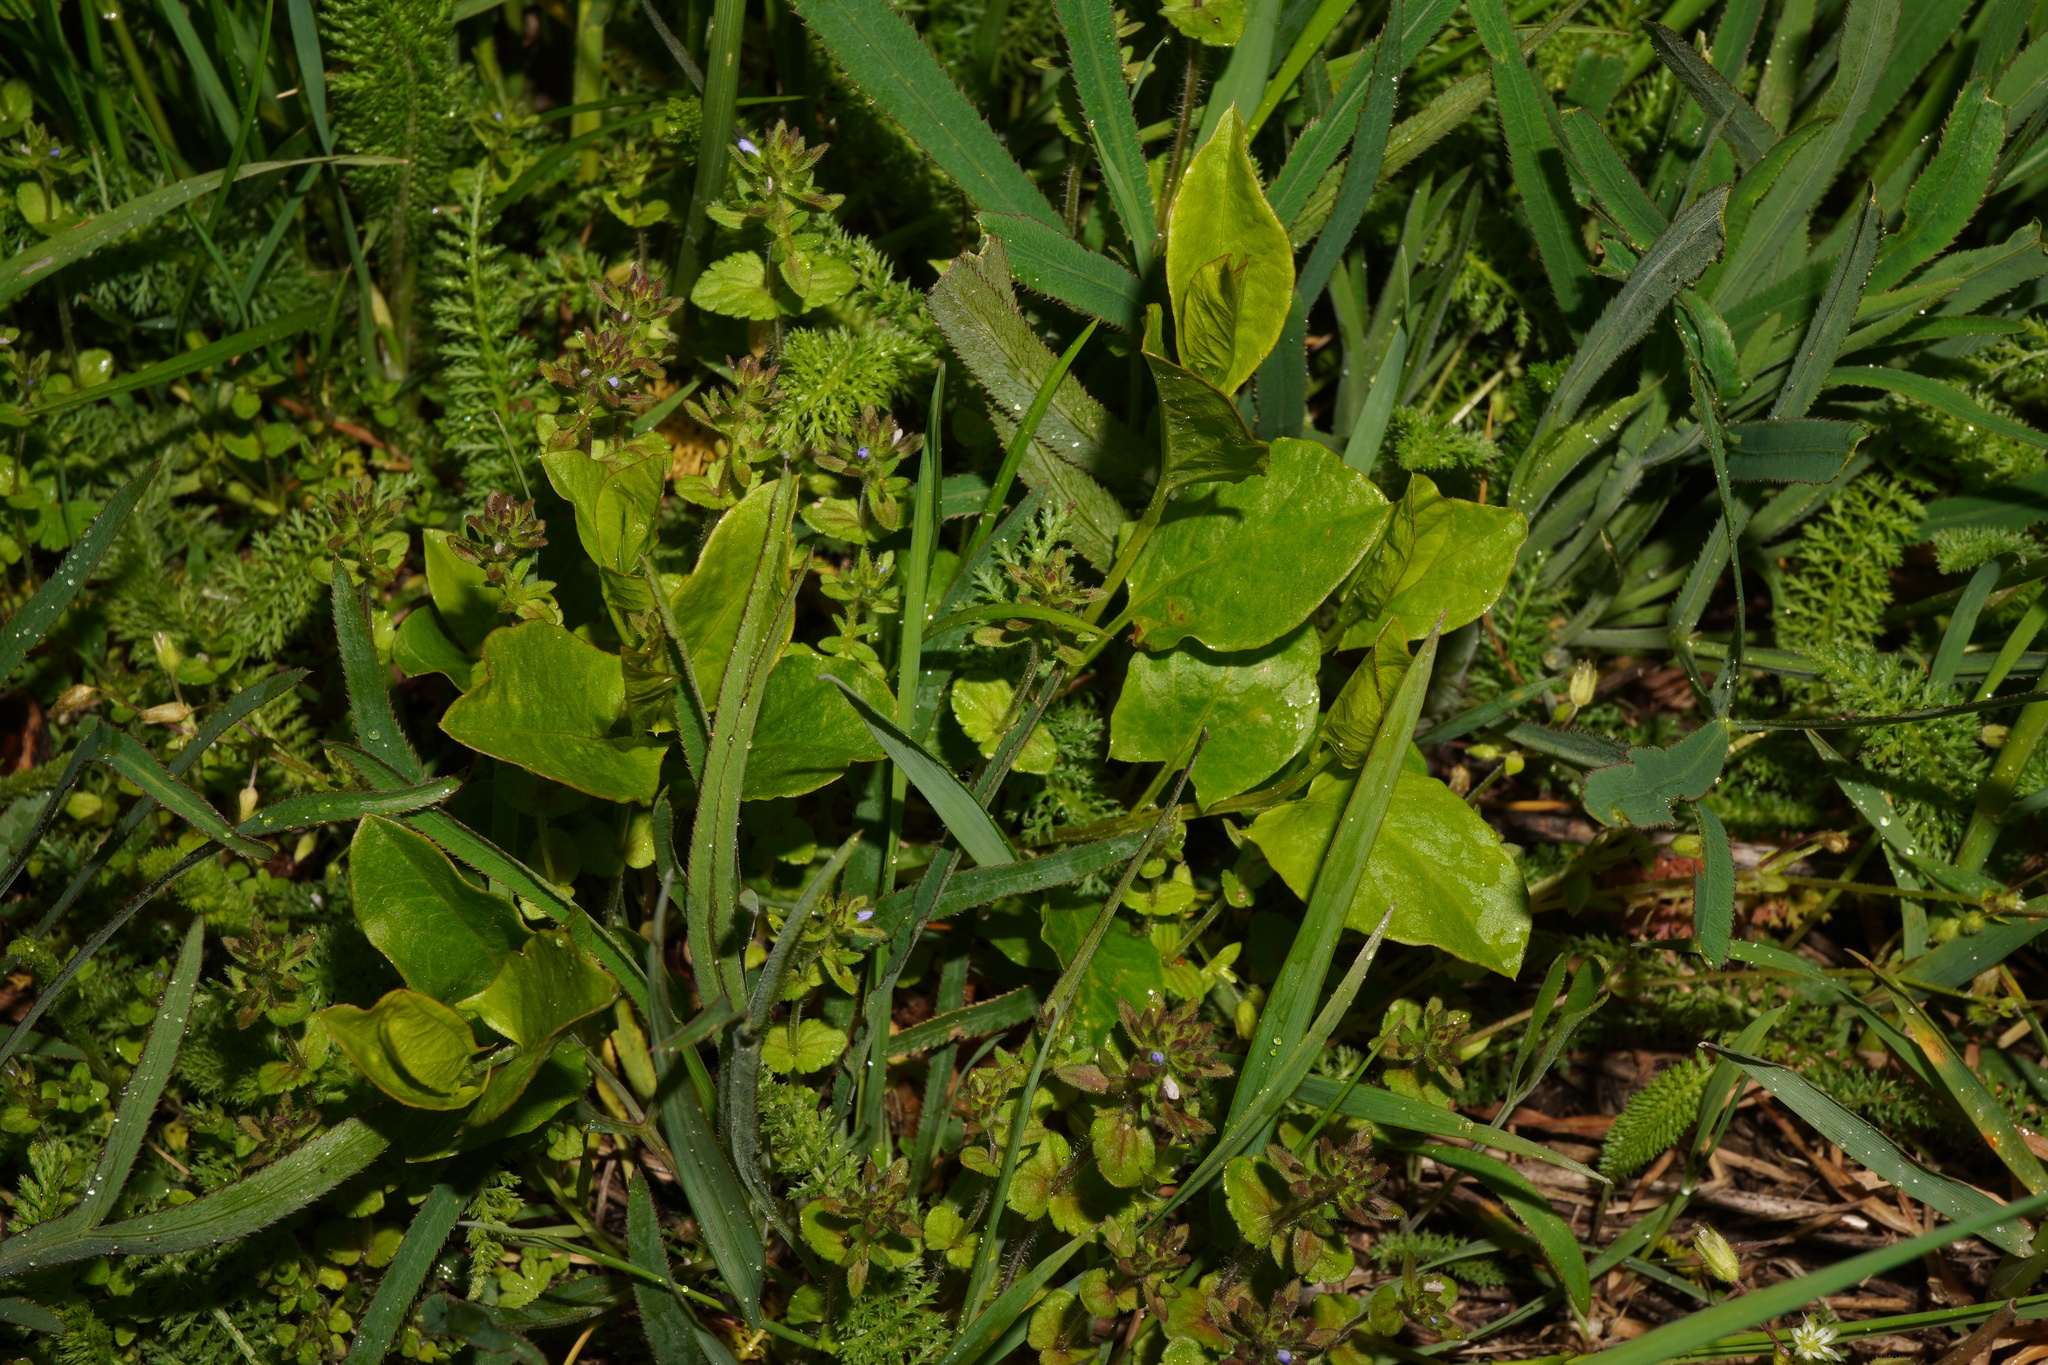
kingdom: Plantae
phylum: Tracheophyta
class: Magnoliopsida
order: Solanales
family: Convolvulaceae
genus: Convolvulus
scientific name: Convolvulus arvensis
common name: Field bindweed
